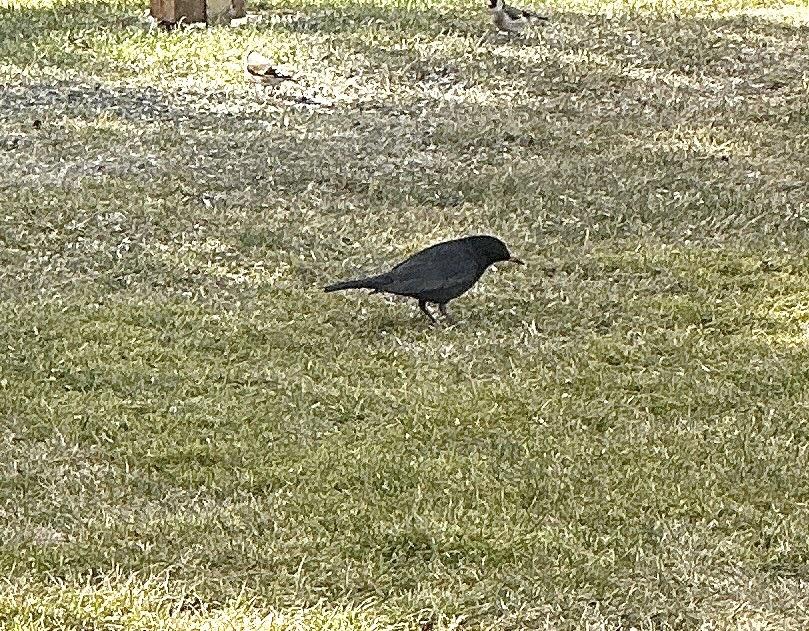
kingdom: Animalia
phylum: Chordata
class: Aves
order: Passeriformes
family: Turdidae
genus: Turdus
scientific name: Turdus merula
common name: Common blackbird
